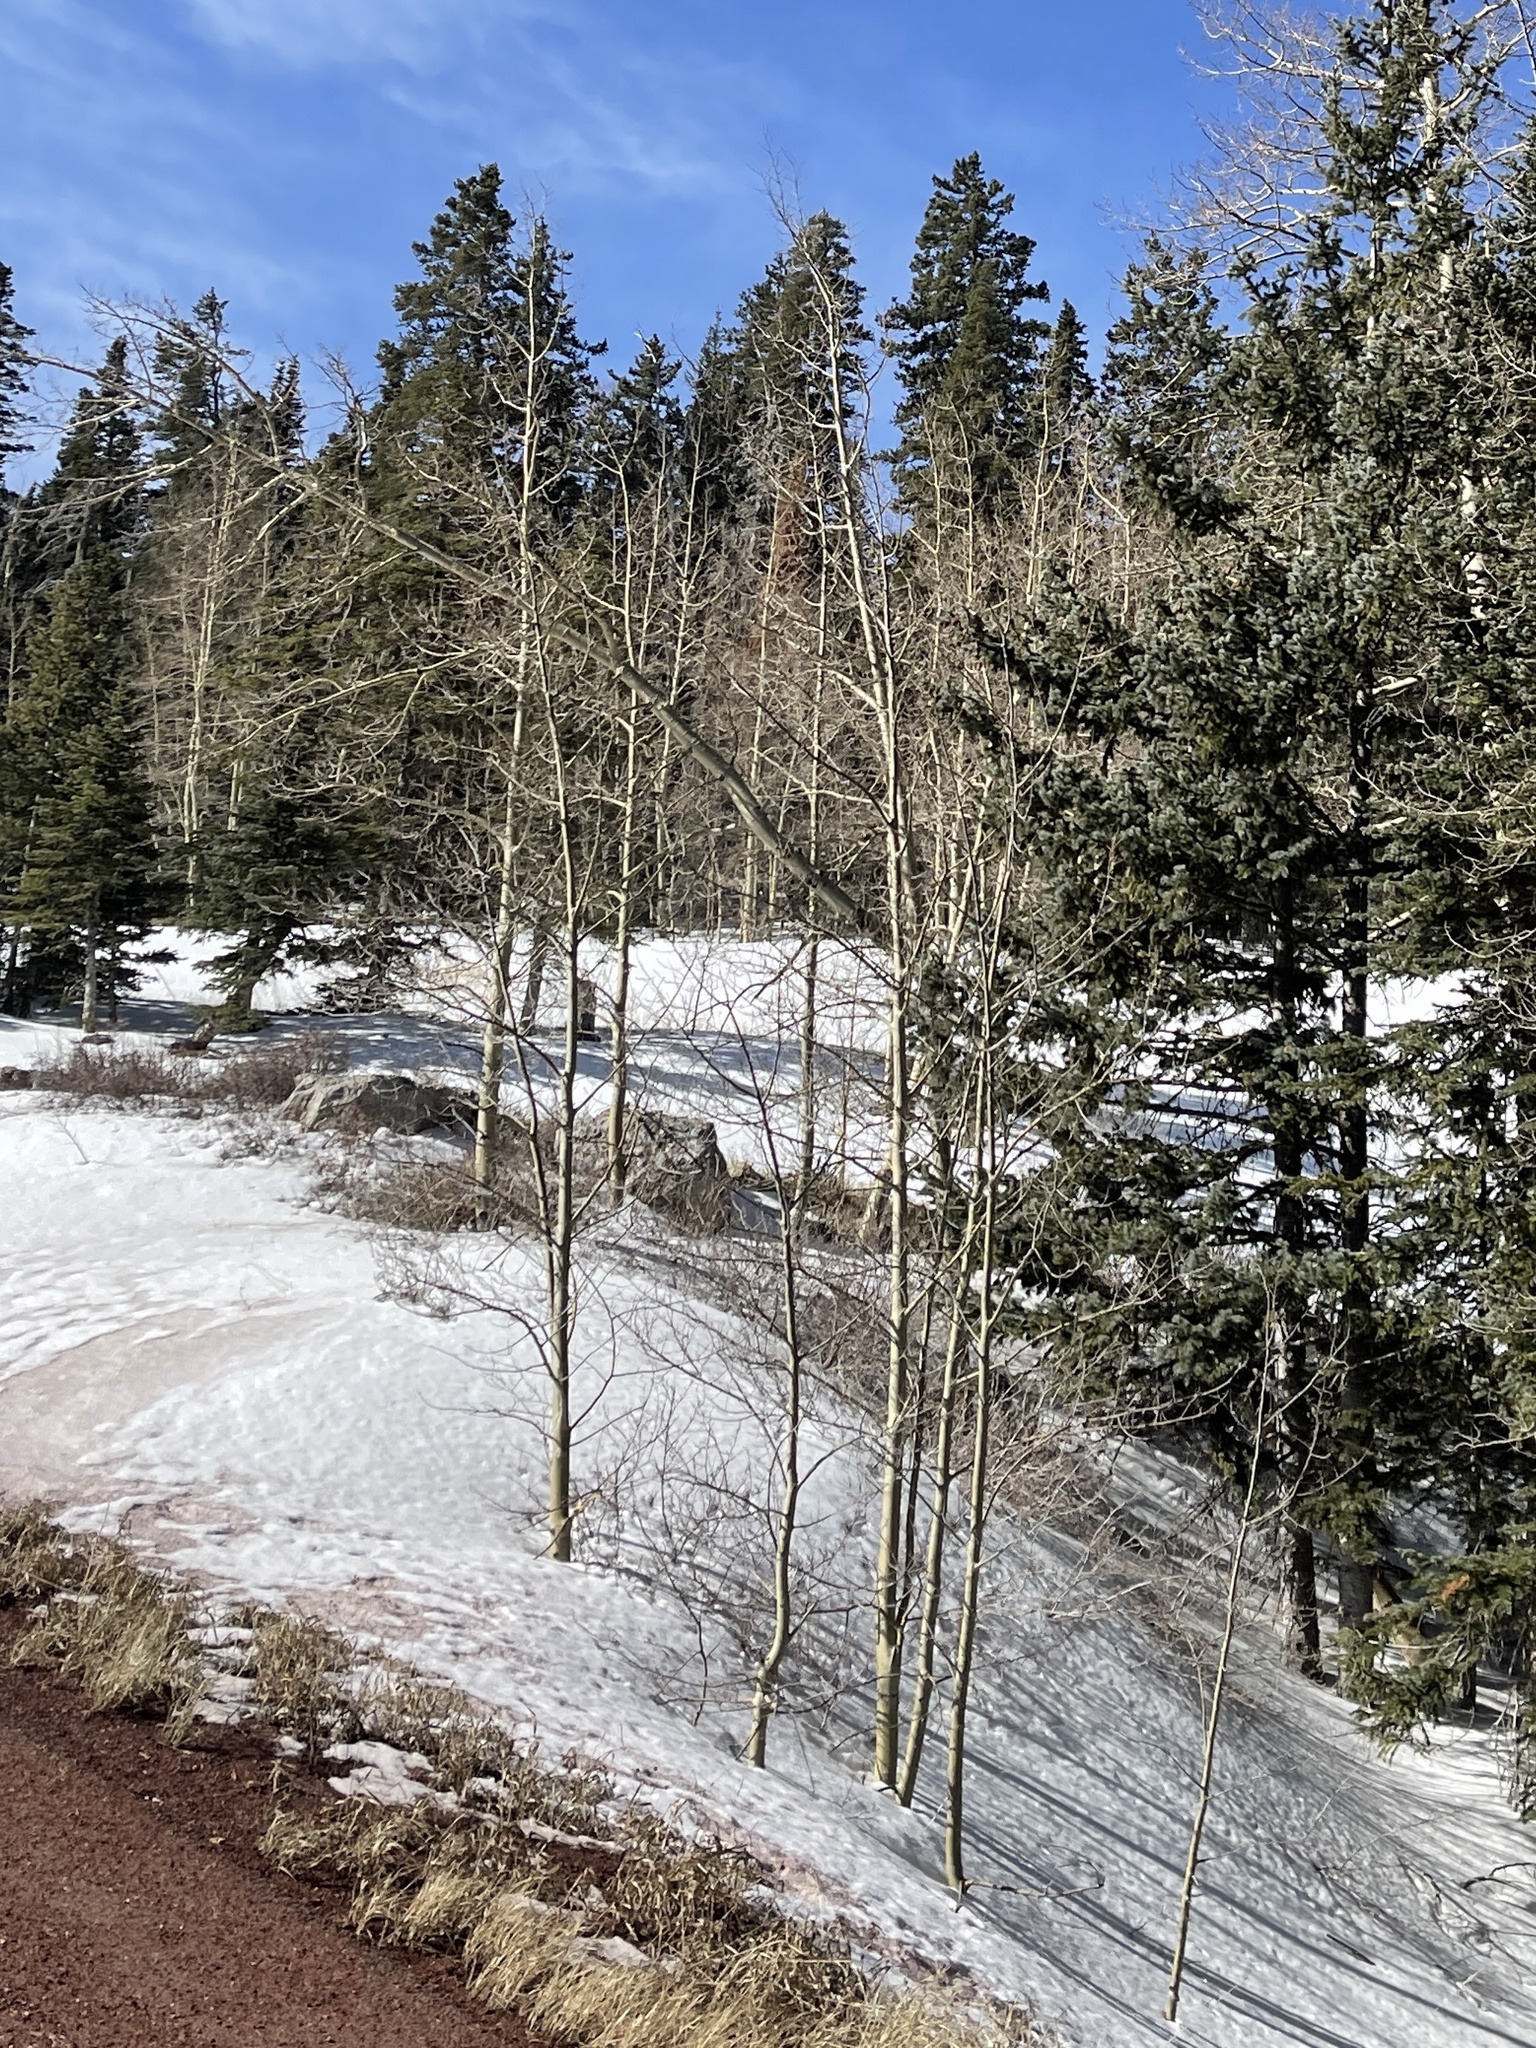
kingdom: Plantae
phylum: Tracheophyta
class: Magnoliopsida
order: Malpighiales
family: Salicaceae
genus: Populus
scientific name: Populus tremuloides
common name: Quaking aspen
